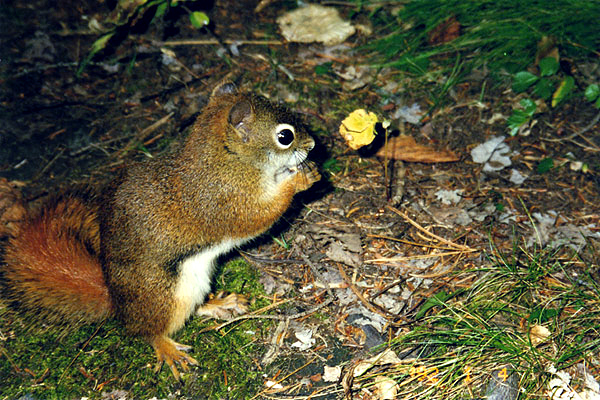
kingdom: Animalia
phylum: Chordata
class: Mammalia
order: Rodentia
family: Sciuridae
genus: Tamiasciurus
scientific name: Tamiasciurus hudsonicus
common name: Red squirrel
